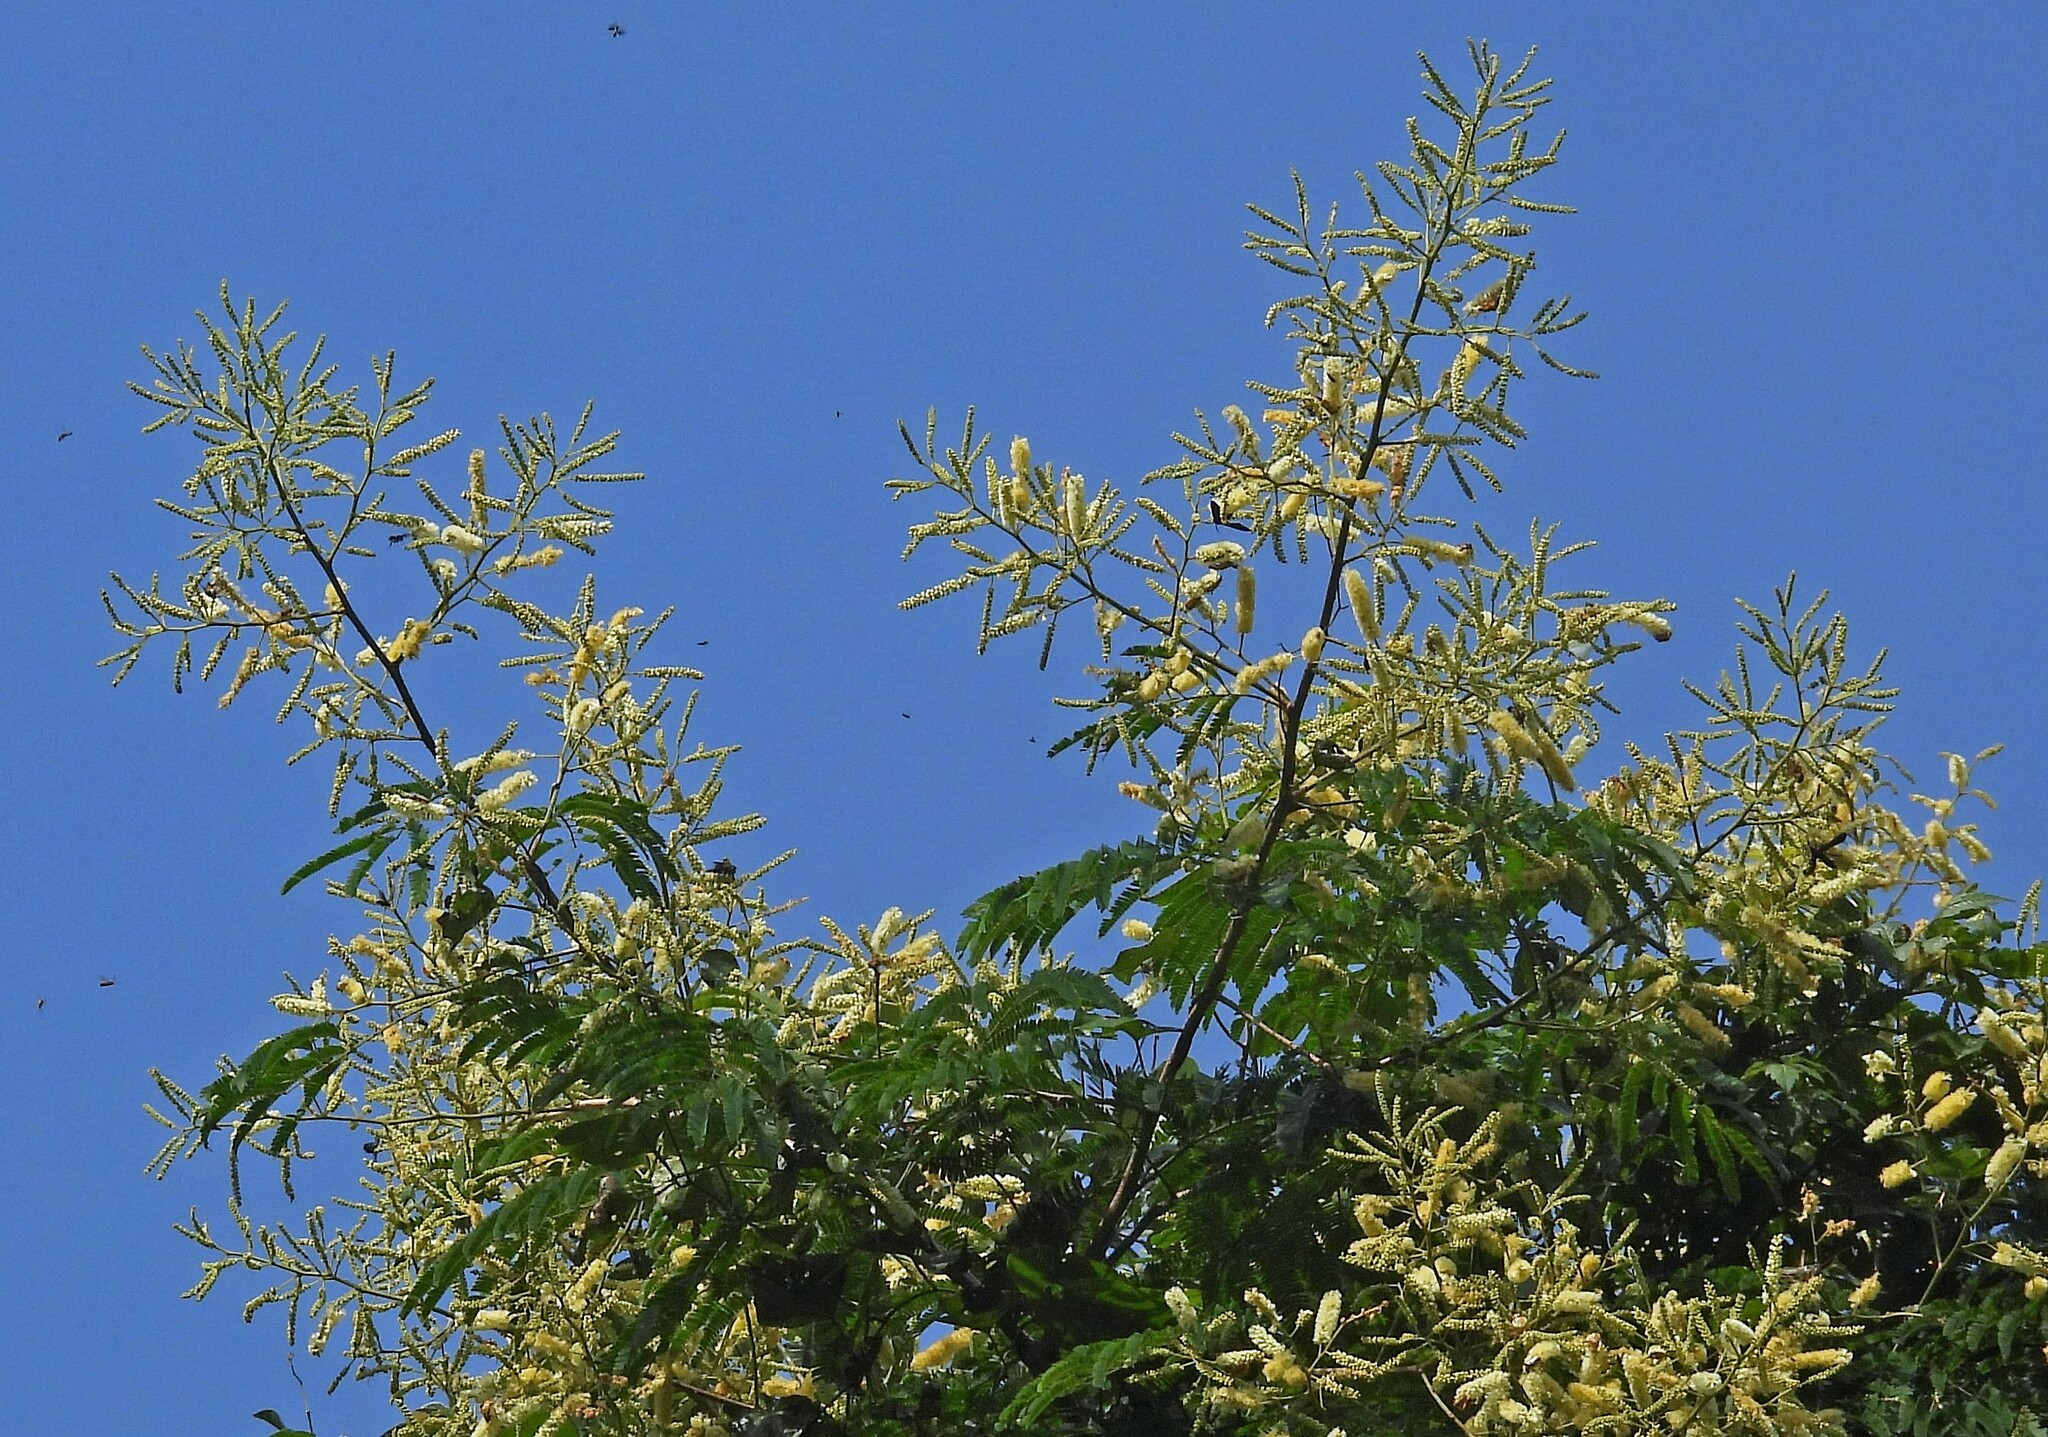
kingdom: Plantae
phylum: Tracheophyta
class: Magnoliopsida
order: Fabales
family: Fabaceae
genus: Senegalia
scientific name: Senegalia velutina
